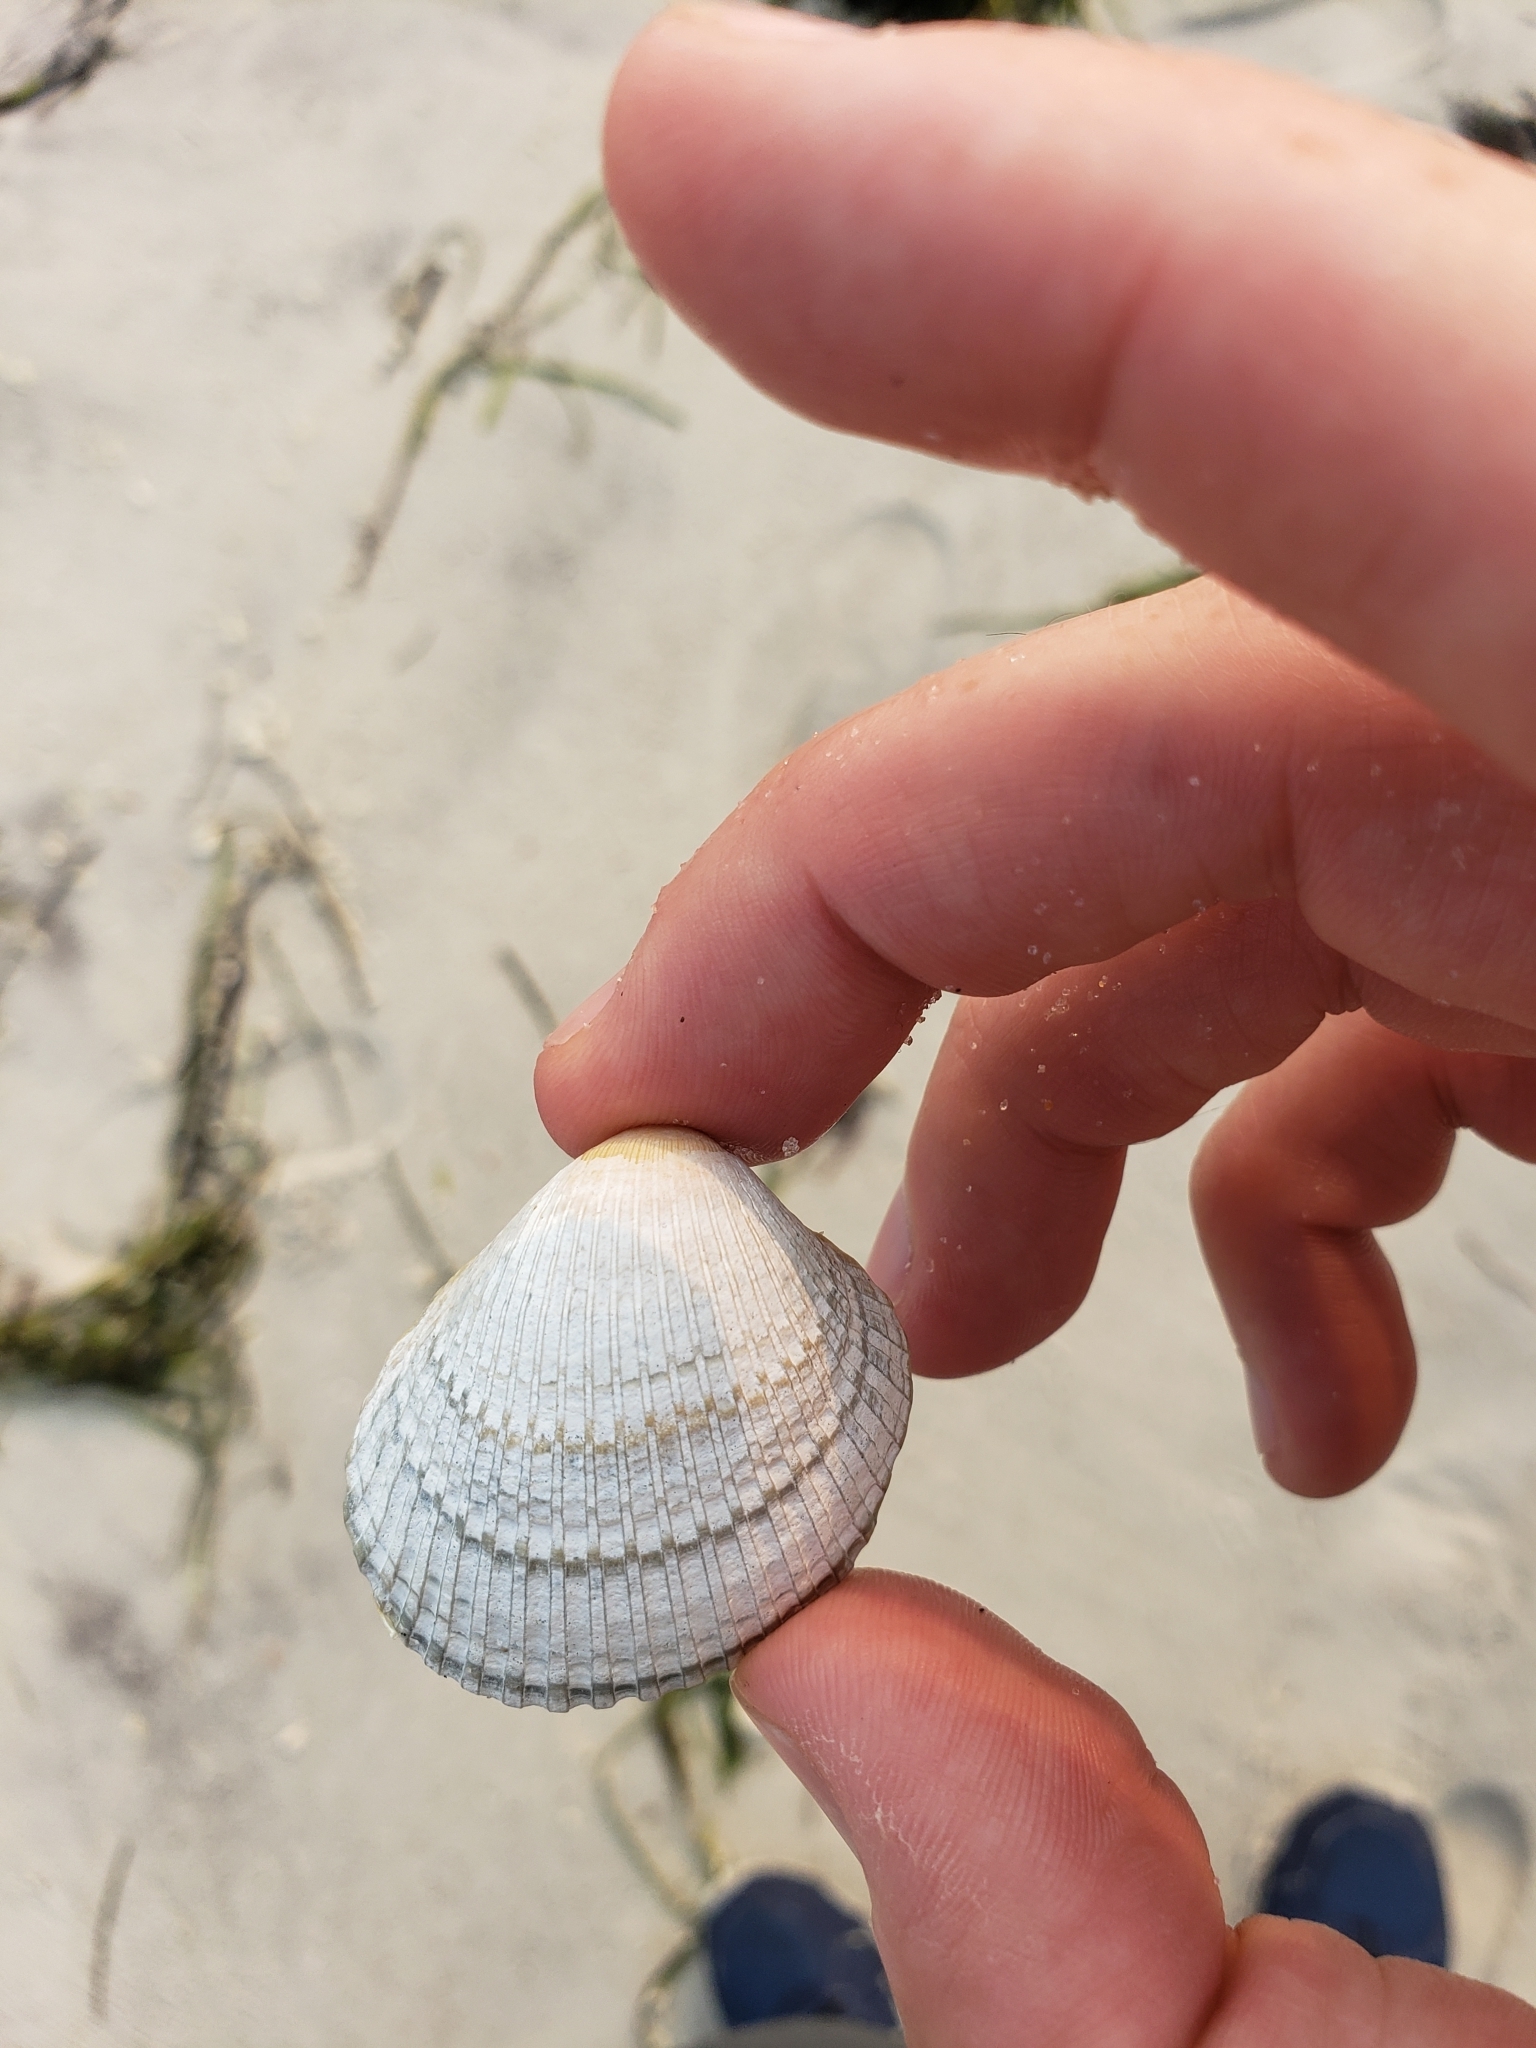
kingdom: Animalia
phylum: Mollusca
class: Bivalvia
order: Arcida
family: Arcidae
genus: Lunarca
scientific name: Lunarca ovalis
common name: Blood ark
